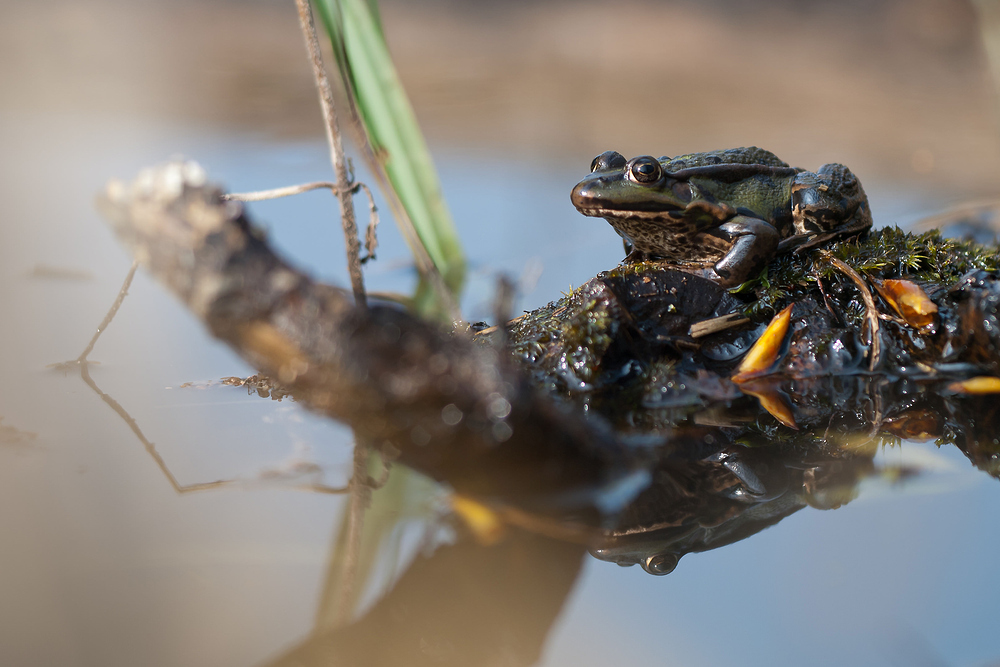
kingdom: Animalia
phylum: Chordata
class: Amphibia
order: Anura
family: Ranidae
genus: Pelophylax
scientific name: Pelophylax ridibundus
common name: Marsh frog
